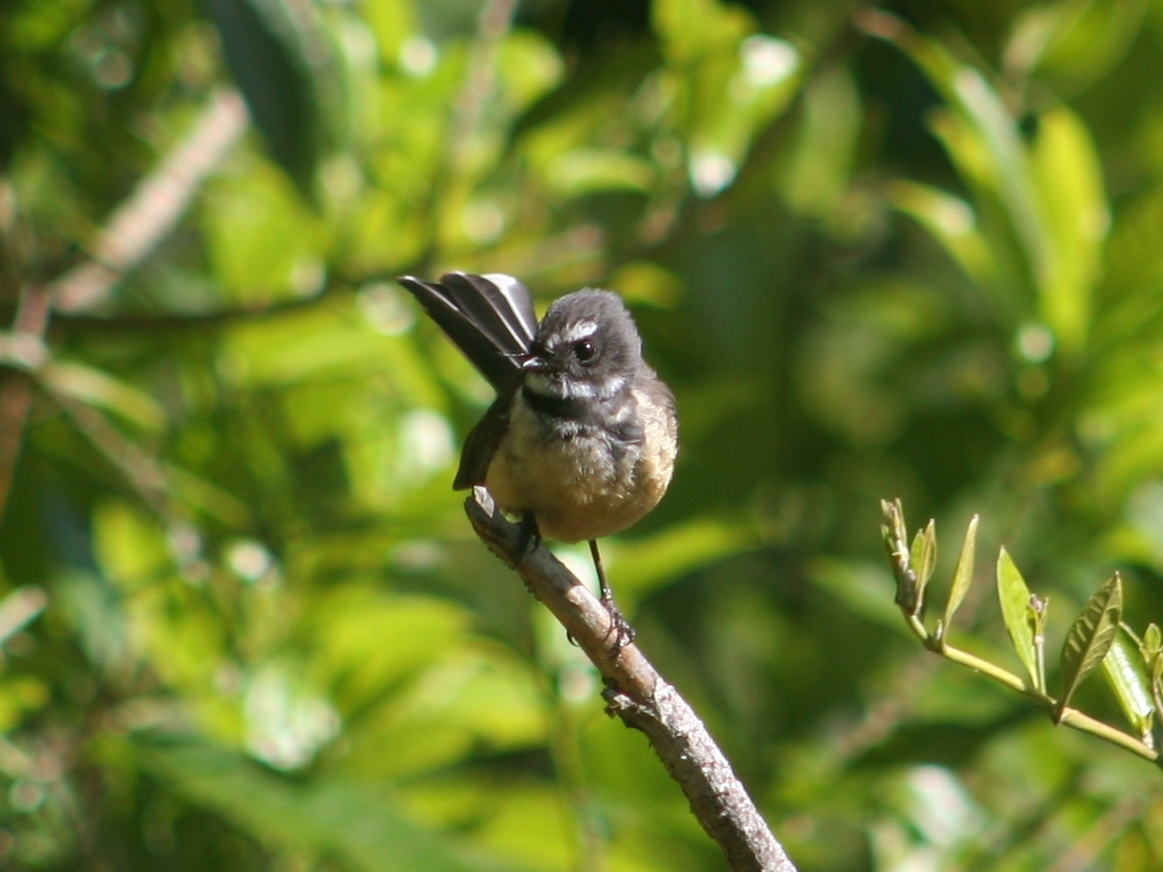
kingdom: Animalia
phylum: Chordata
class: Aves
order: Passeriformes
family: Rhipiduridae
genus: Rhipidura
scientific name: Rhipidura fuliginosa
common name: New zealand fantail
